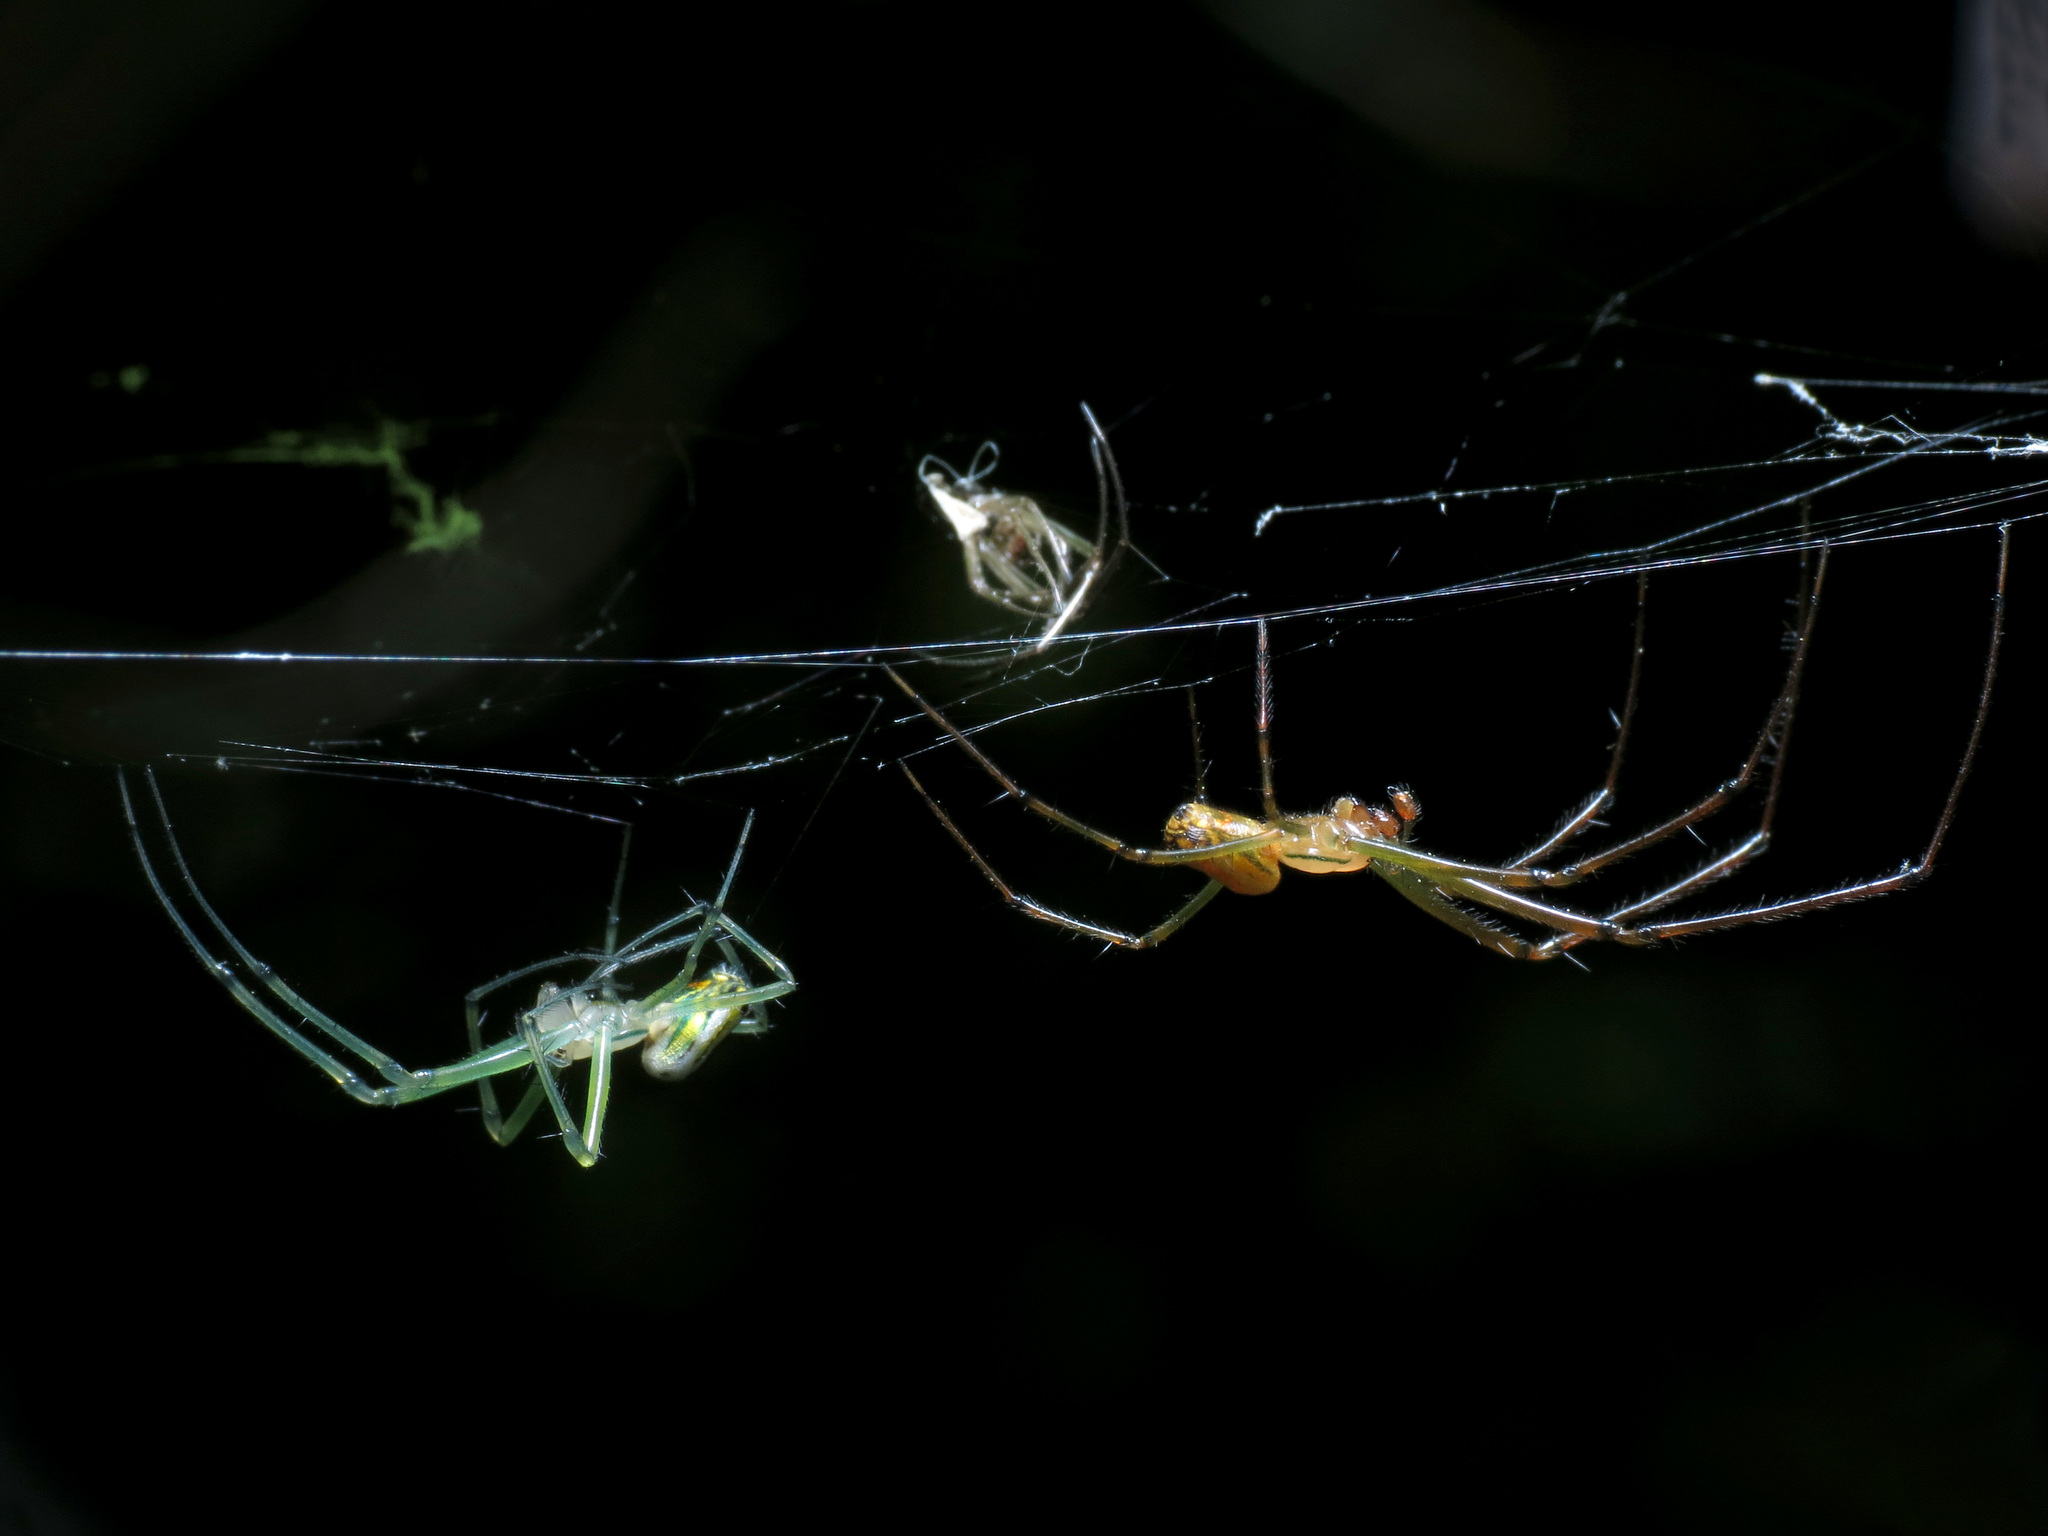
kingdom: Animalia
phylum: Arthropoda
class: Arachnida
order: Araneae
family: Tetragnathidae
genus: Leucauge
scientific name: Leucauge venusta
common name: Longjawed orb weavers
